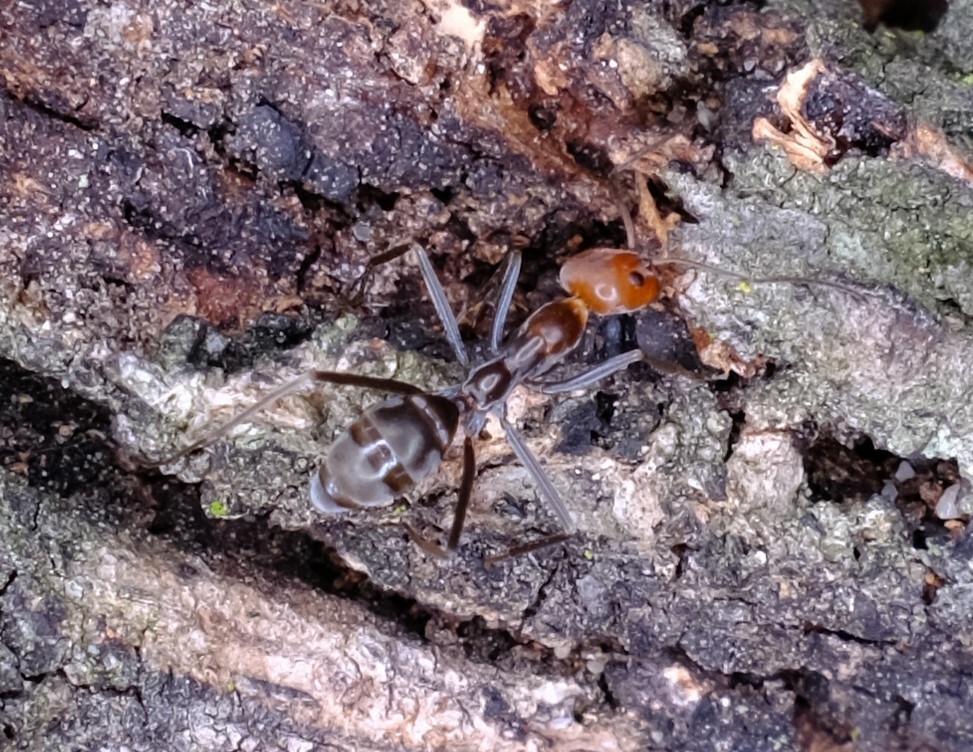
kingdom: Animalia
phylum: Arthropoda
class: Insecta
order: Hymenoptera
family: Formicidae
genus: Iridomyrmex
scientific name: Iridomyrmex
